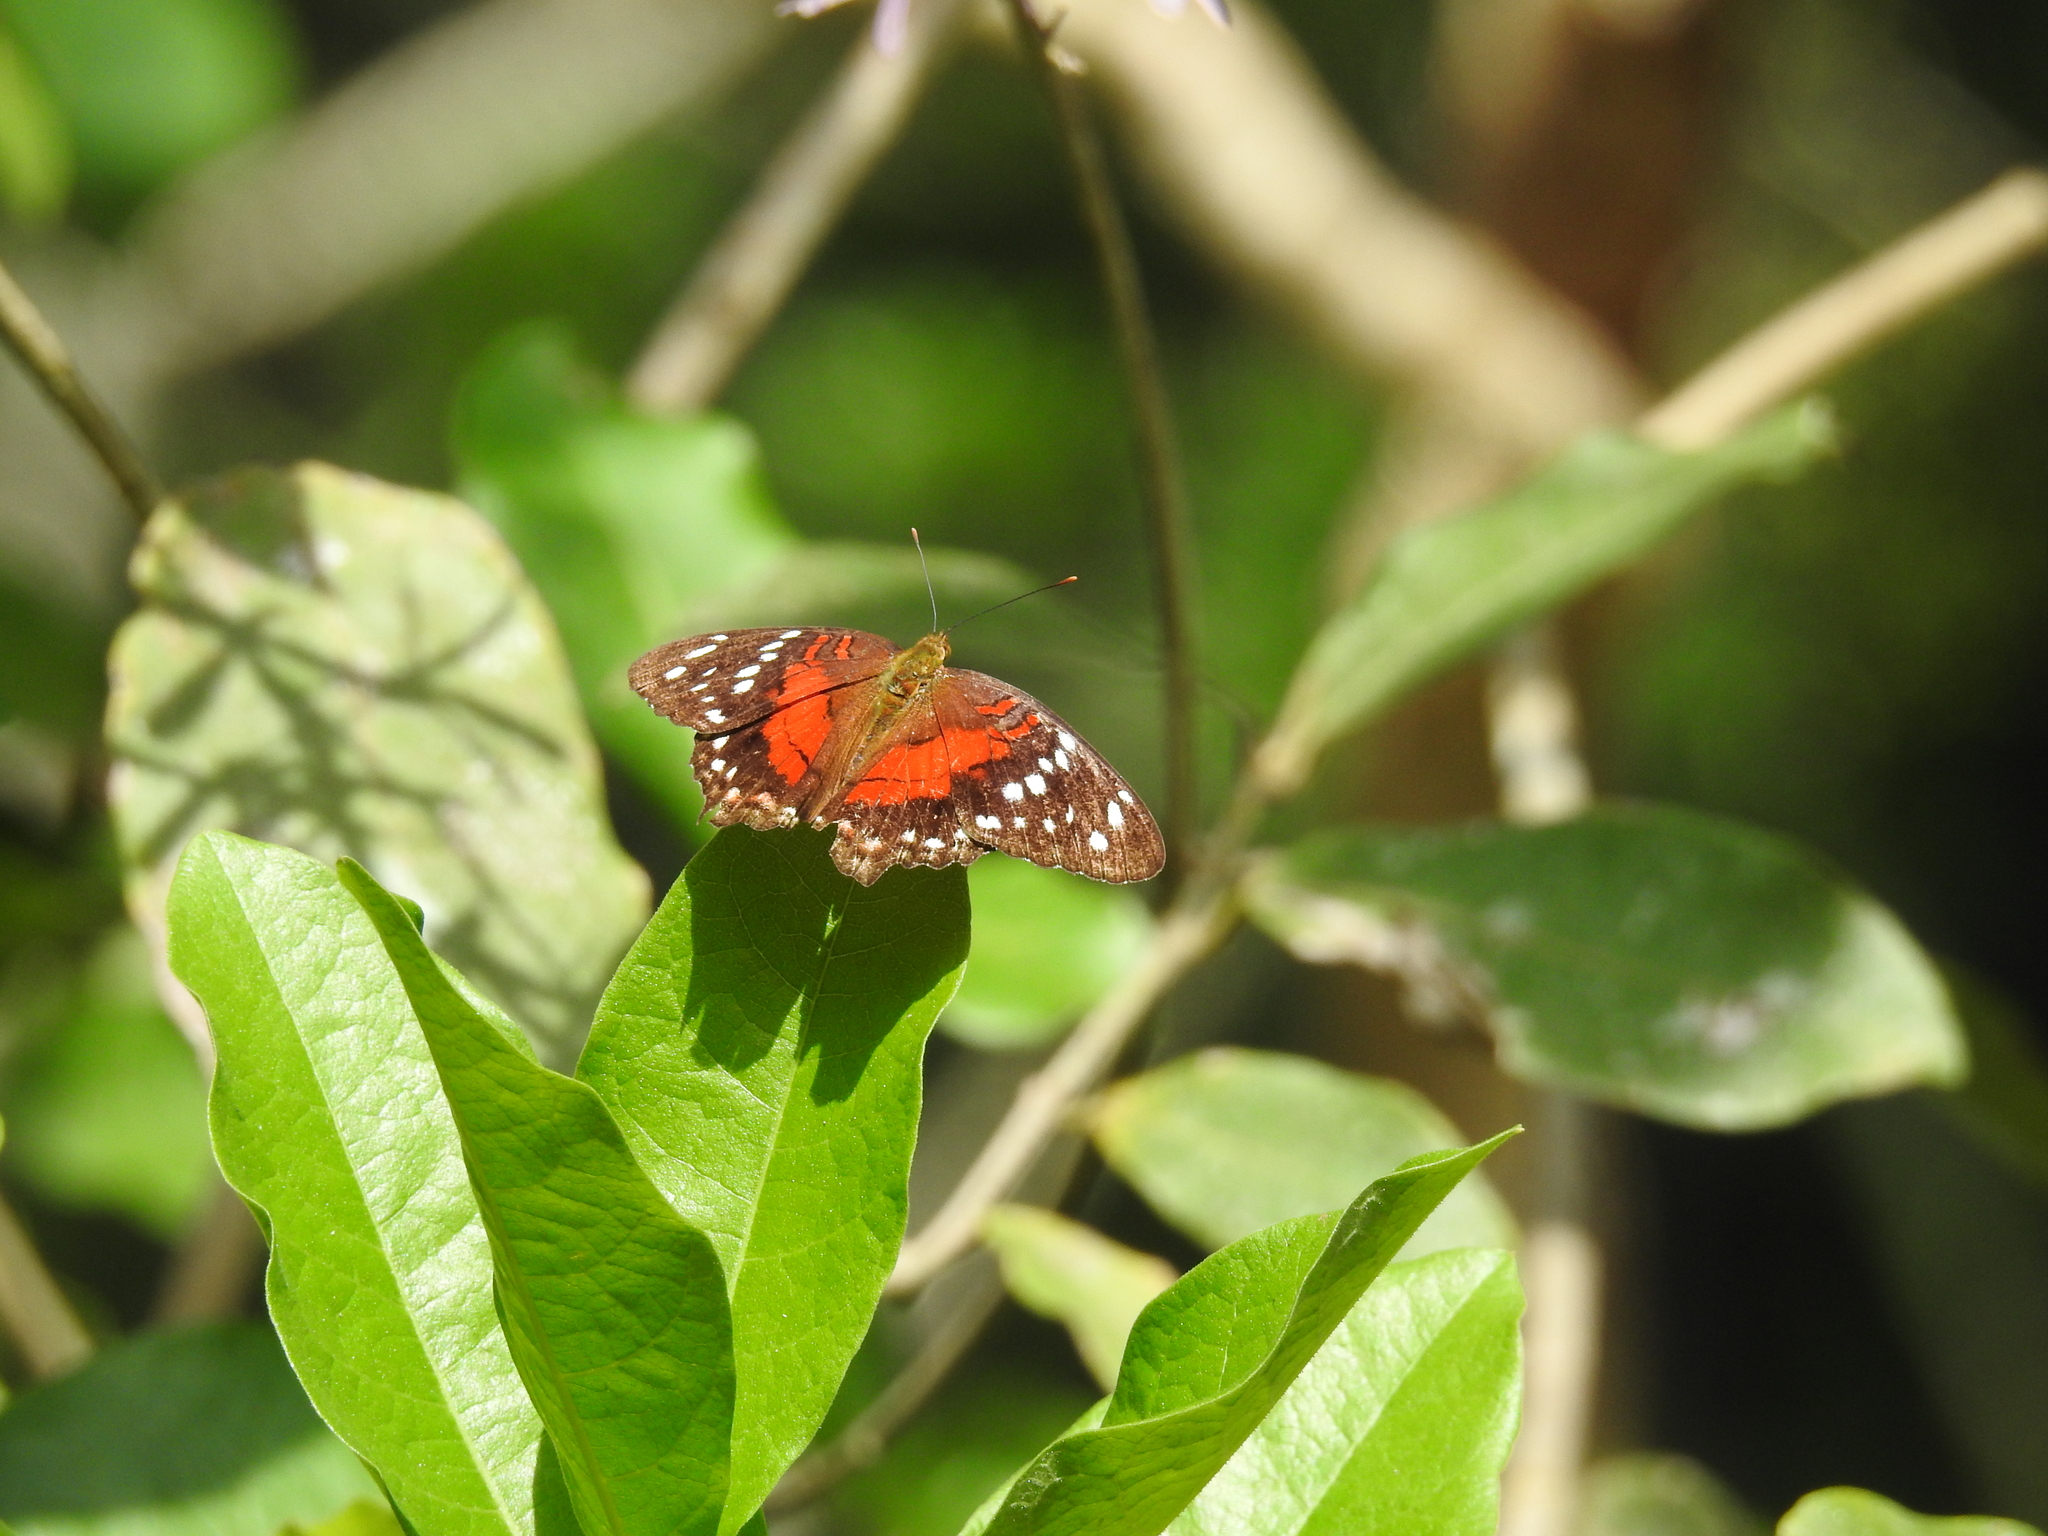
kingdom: Animalia
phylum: Arthropoda
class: Insecta
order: Lepidoptera
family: Nymphalidae
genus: Anartia
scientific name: Anartia amathea
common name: Red peacock
